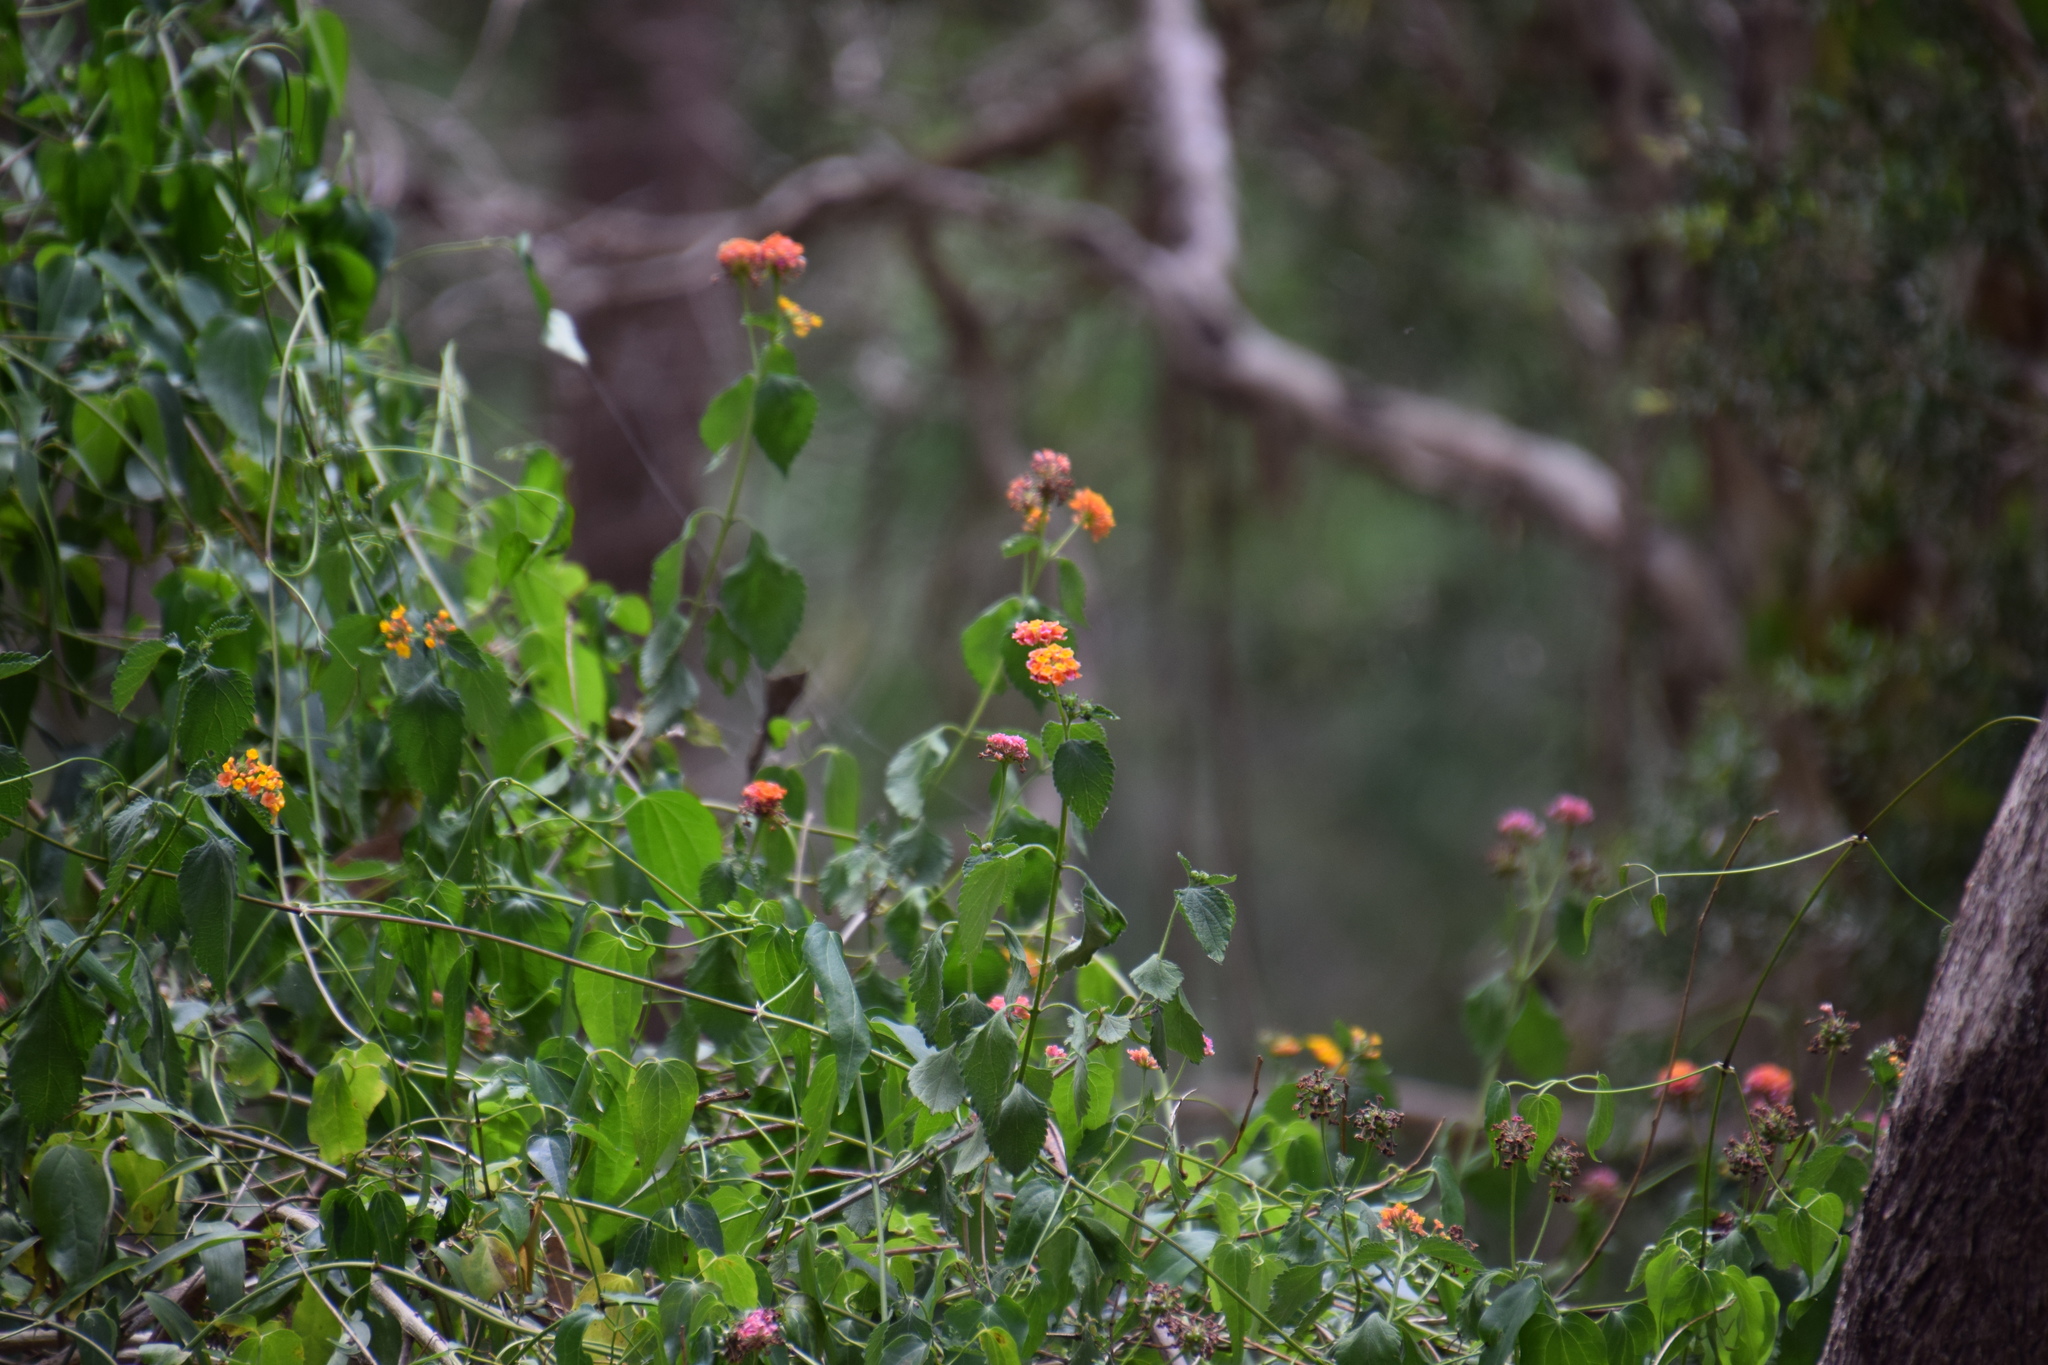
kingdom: Plantae
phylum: Tracheophyta
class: Magnoliopsida
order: Lamiales
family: Verbenaceae
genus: Lantana
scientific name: Lantana camara
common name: Lantana
